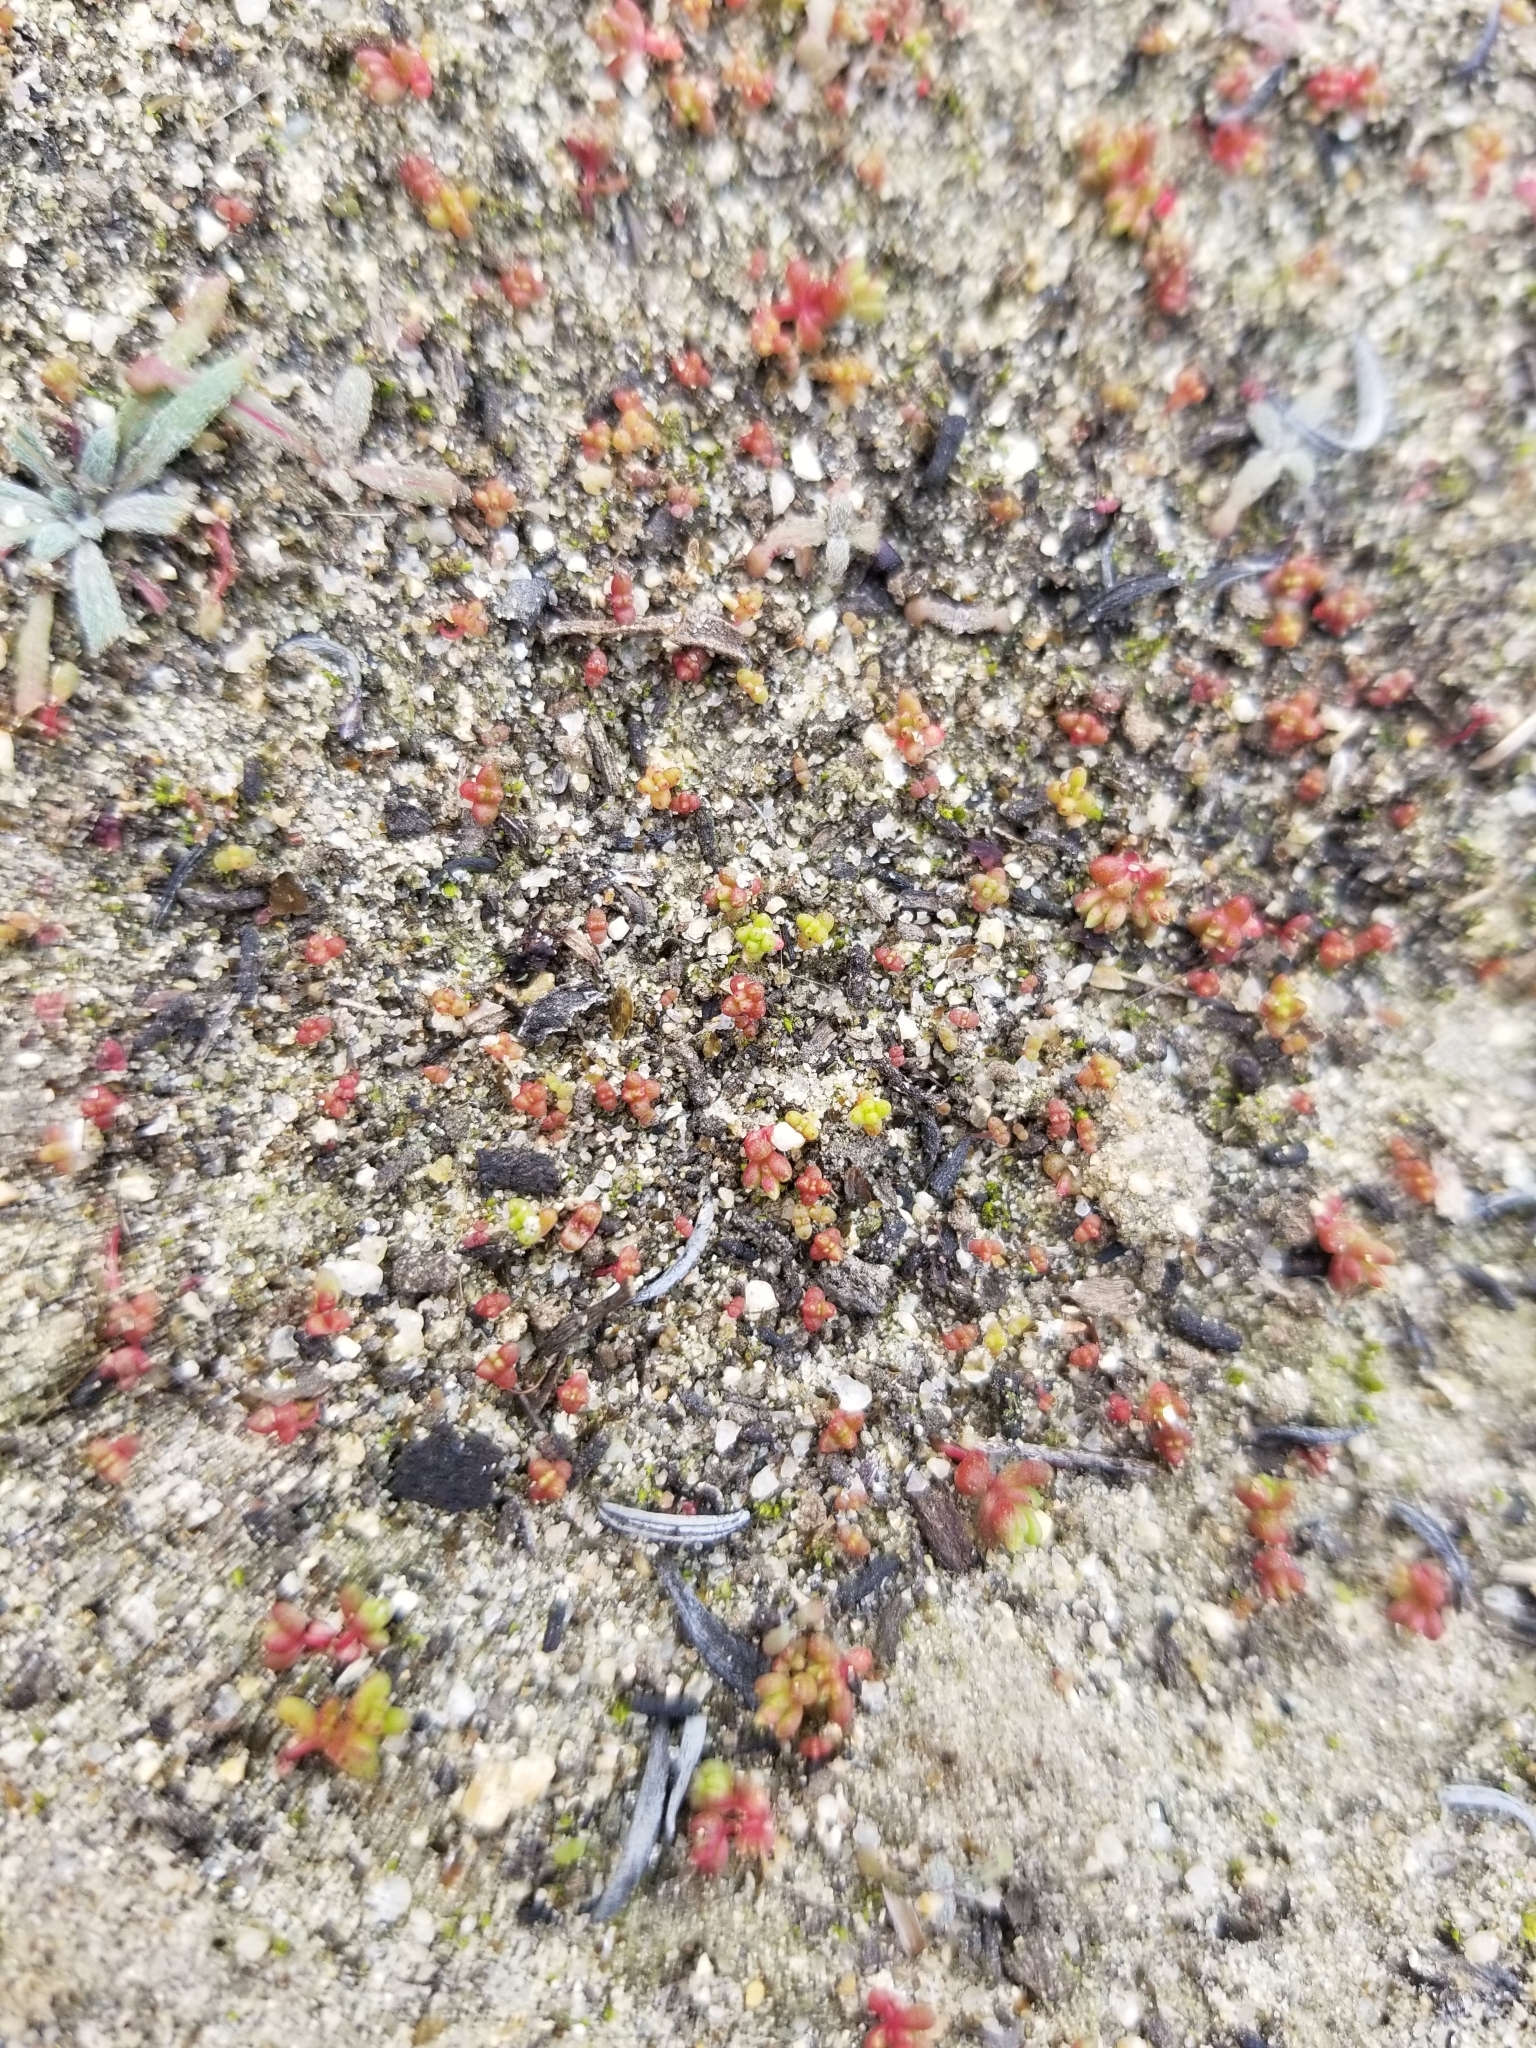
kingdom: Plantae
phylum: Tracheophyta
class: Magnoliopsida
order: Saxifragales
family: Crassulaceae
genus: Crassula
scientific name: Crassula connata
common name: Erect pygmyweed
